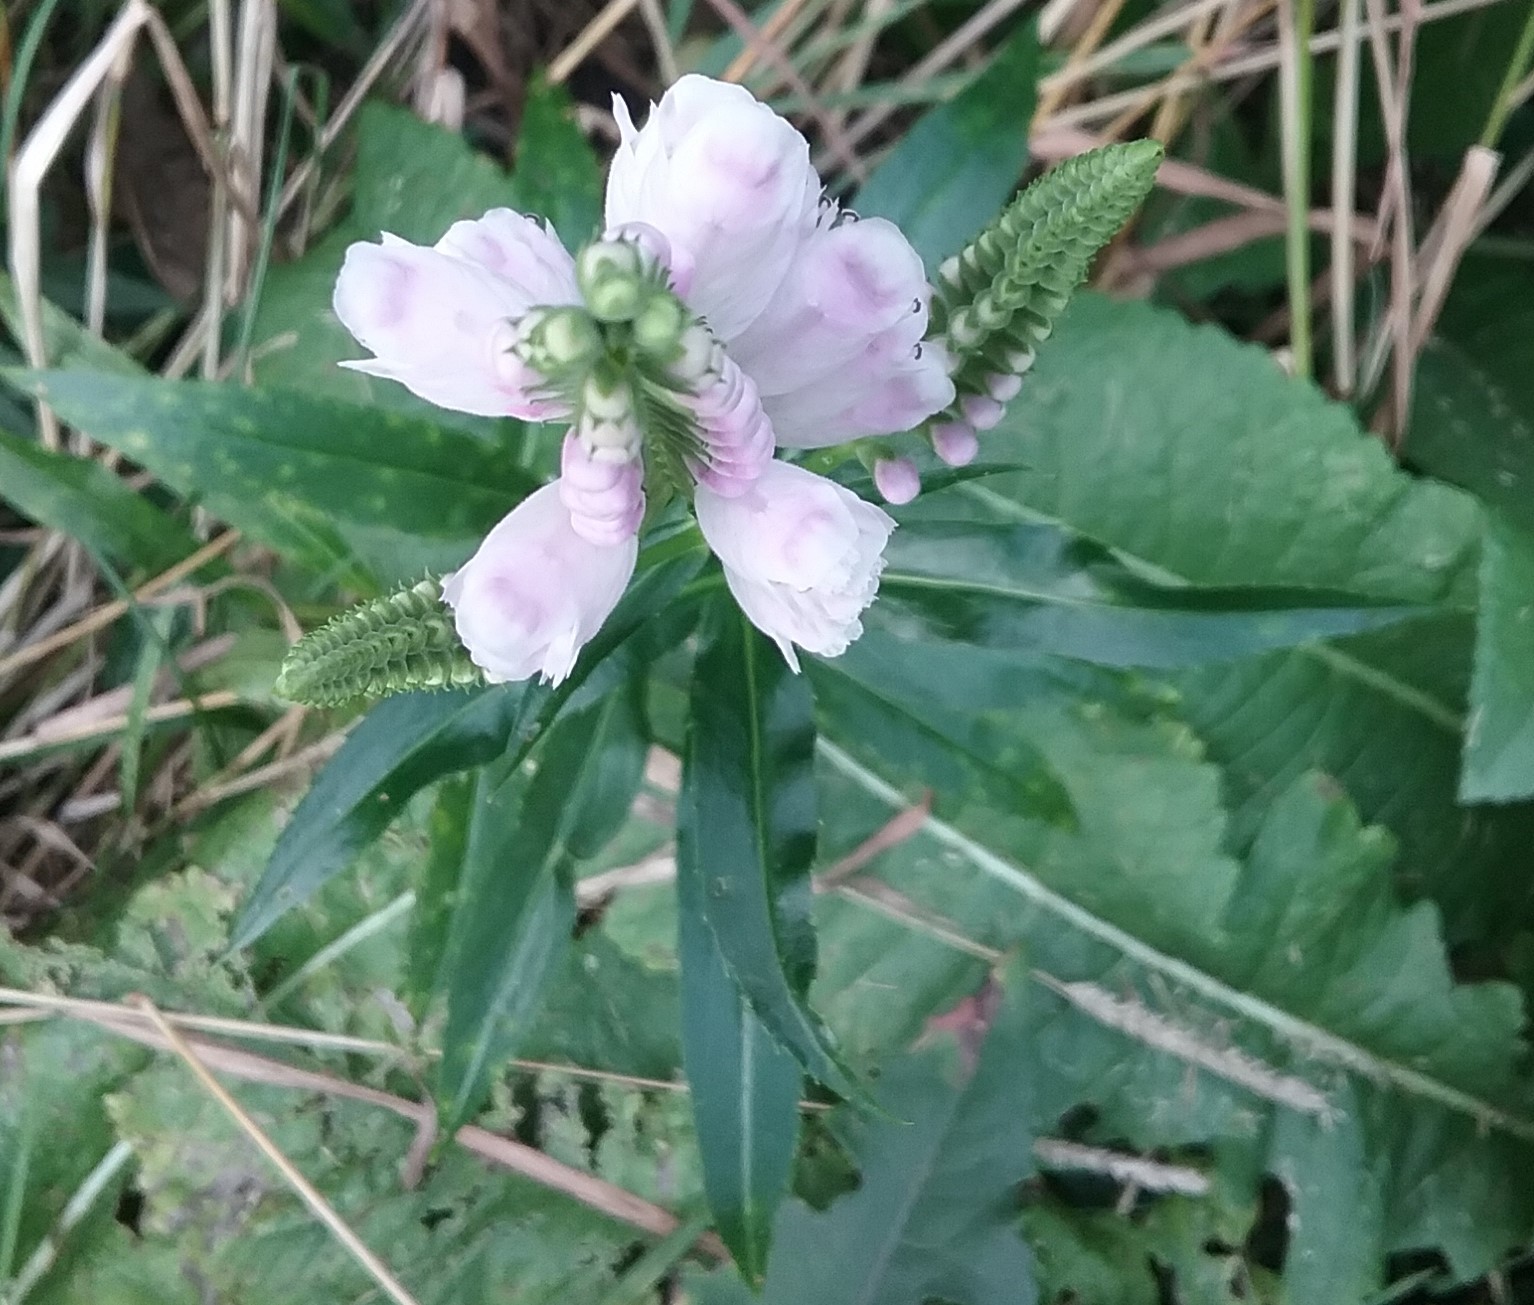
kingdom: Plantae
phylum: Tracheophyta
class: Magnoliopsida
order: Lamiales
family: Lamiaceae
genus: Physostegia
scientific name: Physostegia virginiana
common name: Obedient-plant
